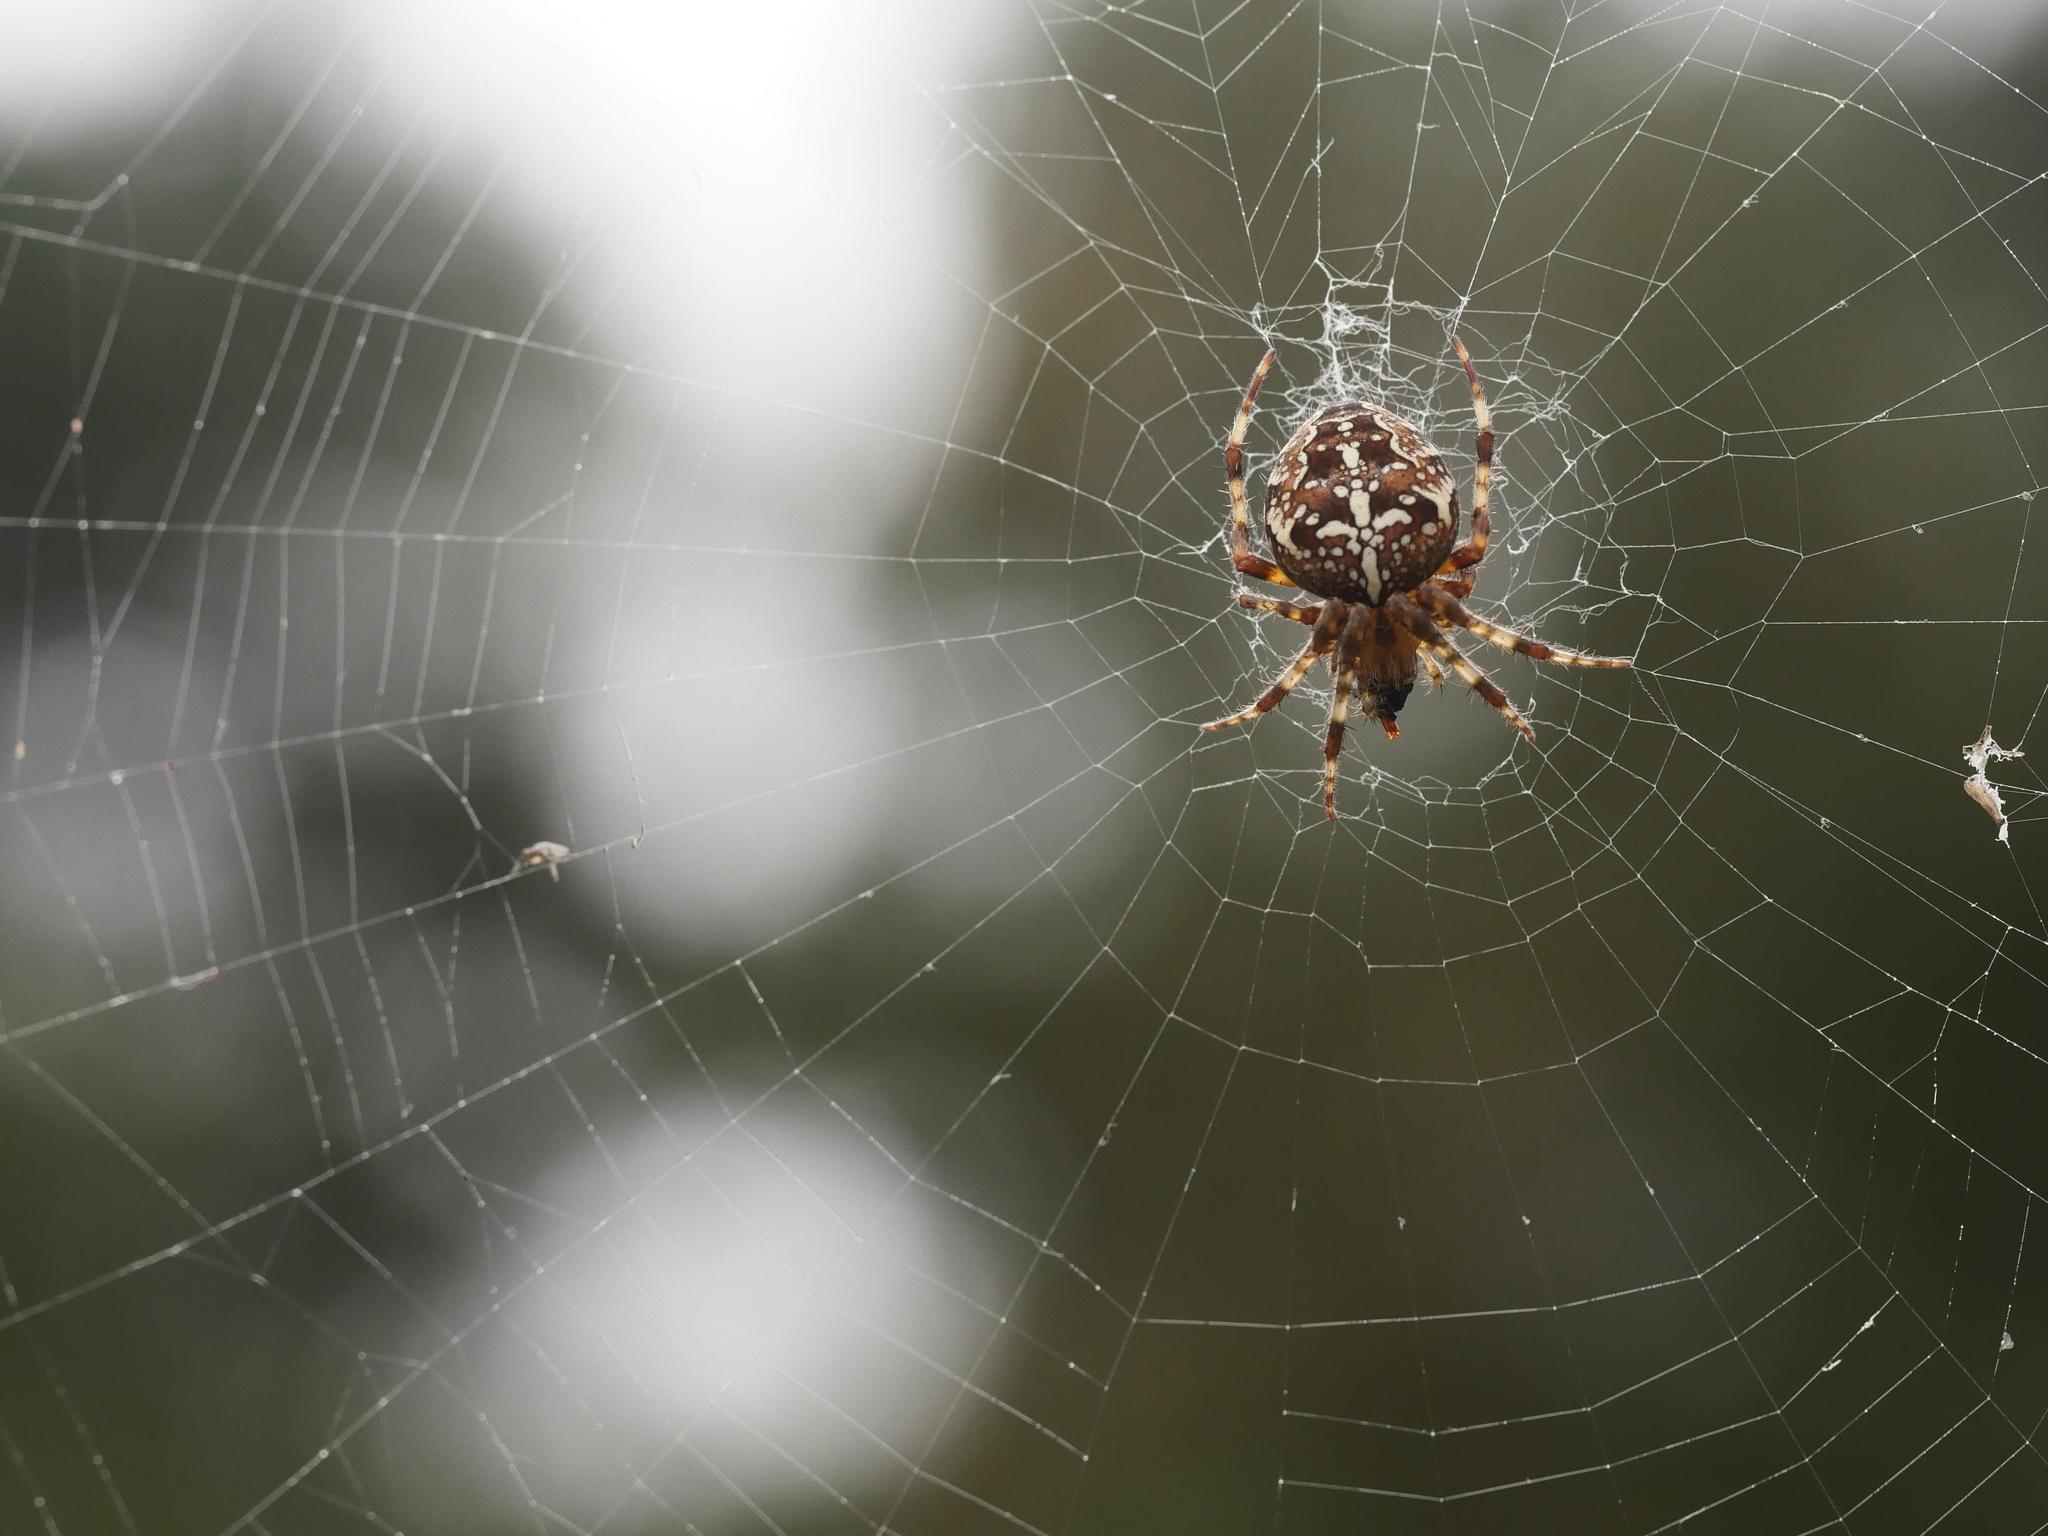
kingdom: Animalia
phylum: Arthropoda
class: Arachnida
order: Araneae
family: Araneidae
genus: Araneus
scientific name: Araneus diadematus
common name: Cross orbweaver
